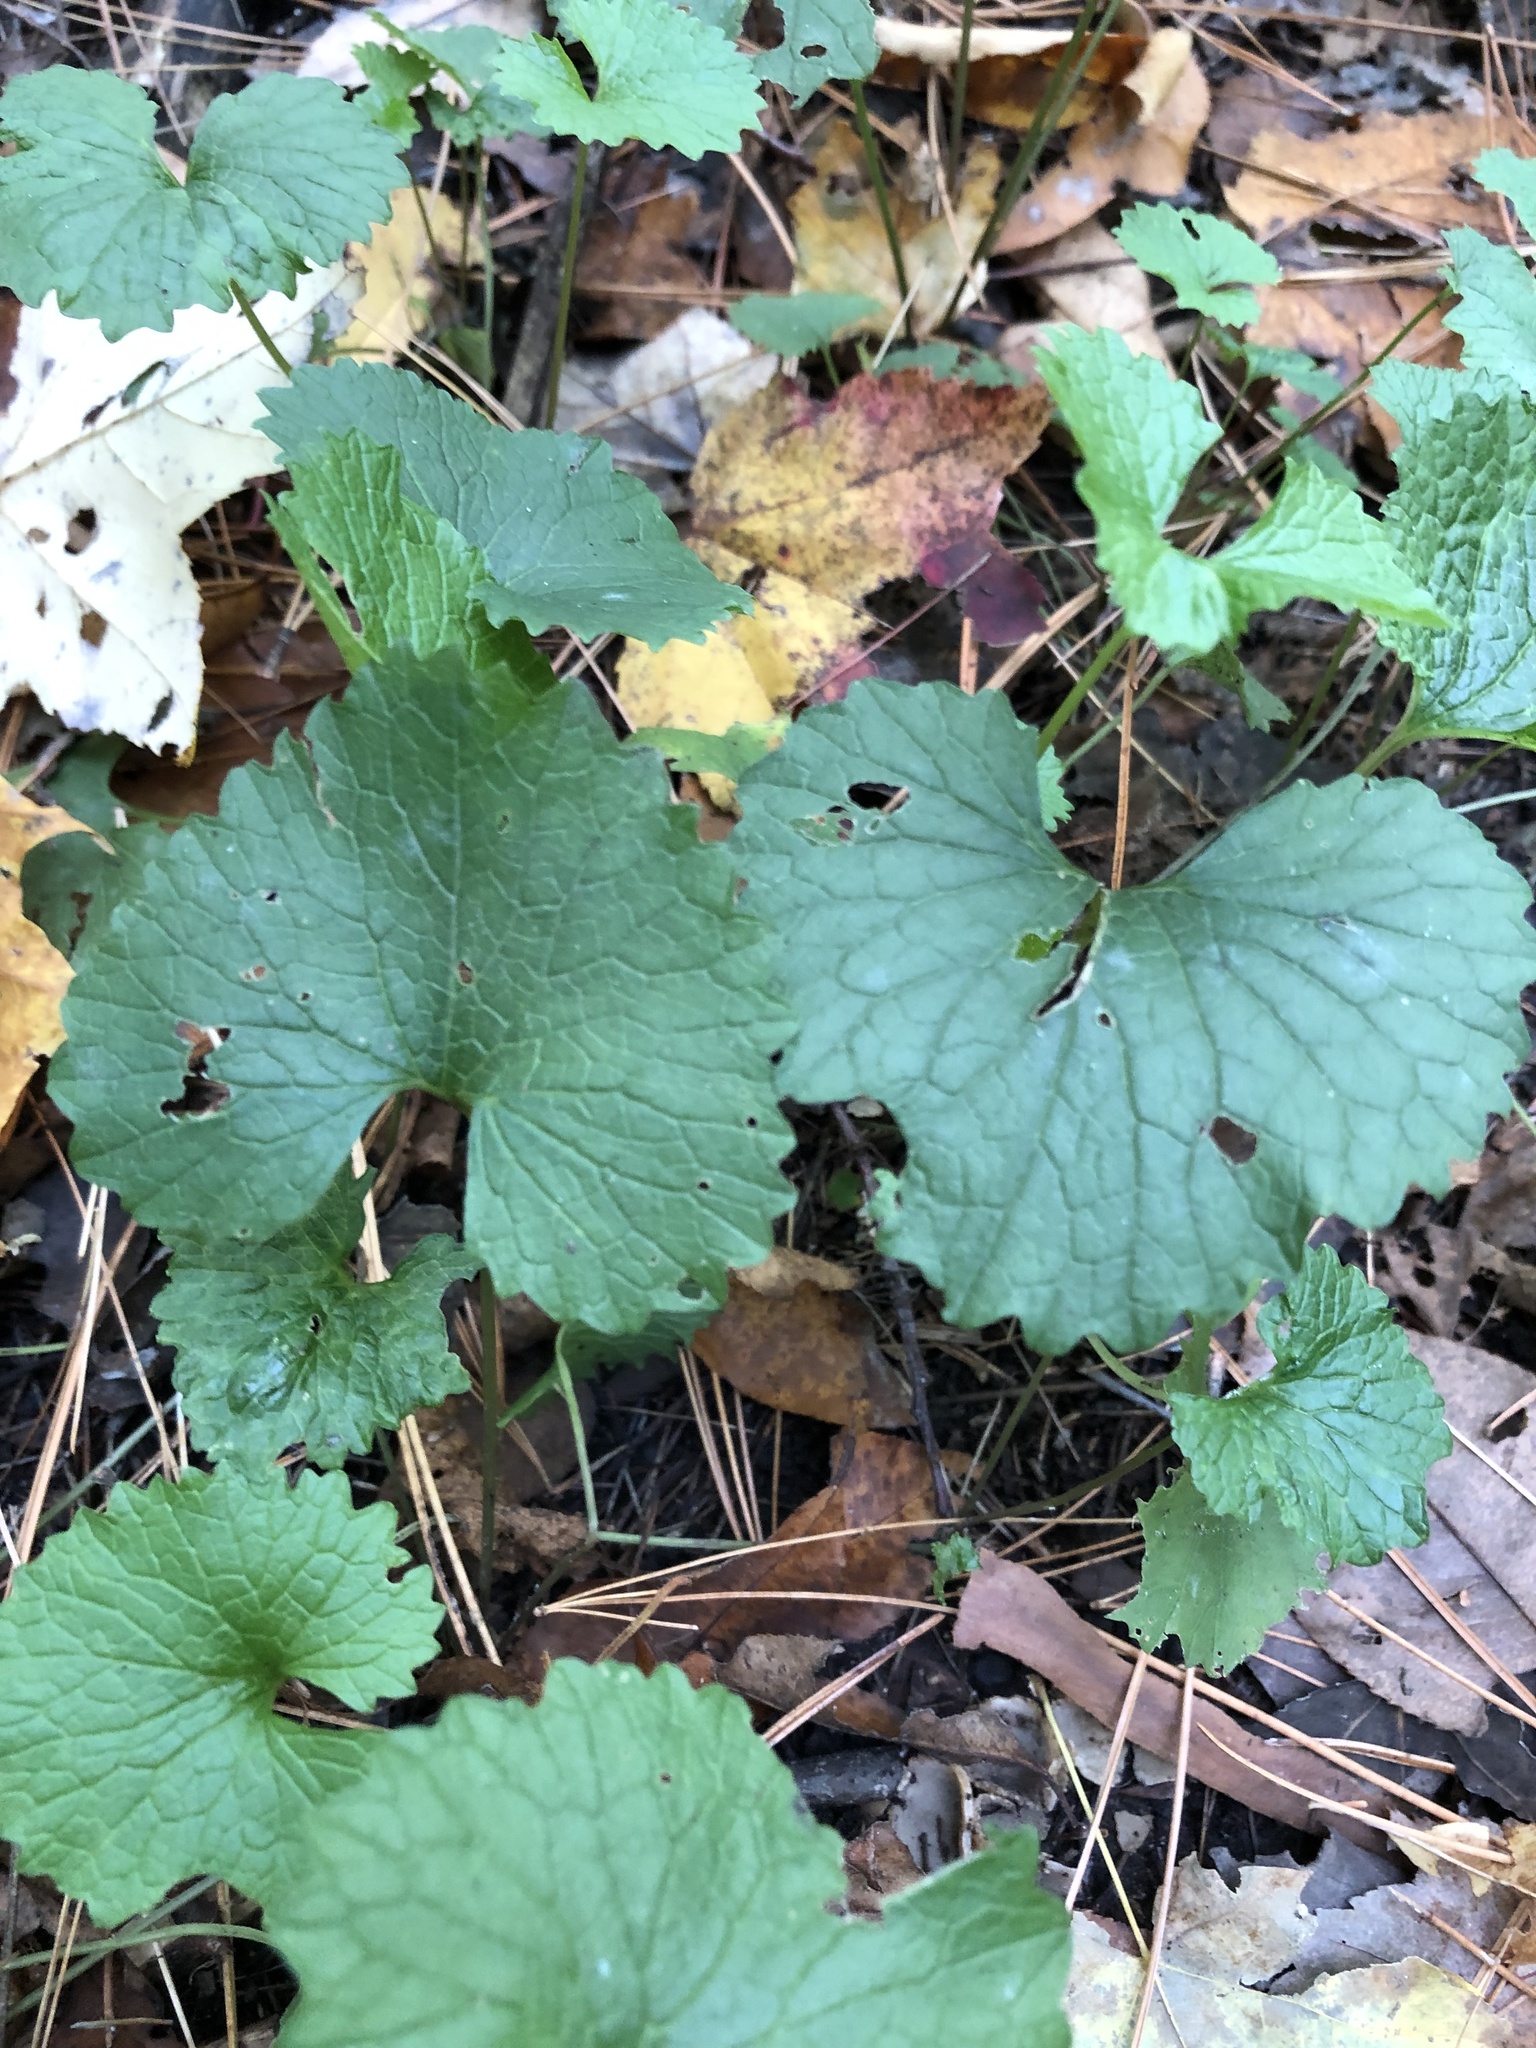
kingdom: Plantae
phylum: Tracheophyta
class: Magnoliopsida
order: Brassicales
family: Brassicaceae
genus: Alliaria
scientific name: Alliaria petiolata
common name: Garlic mustard
